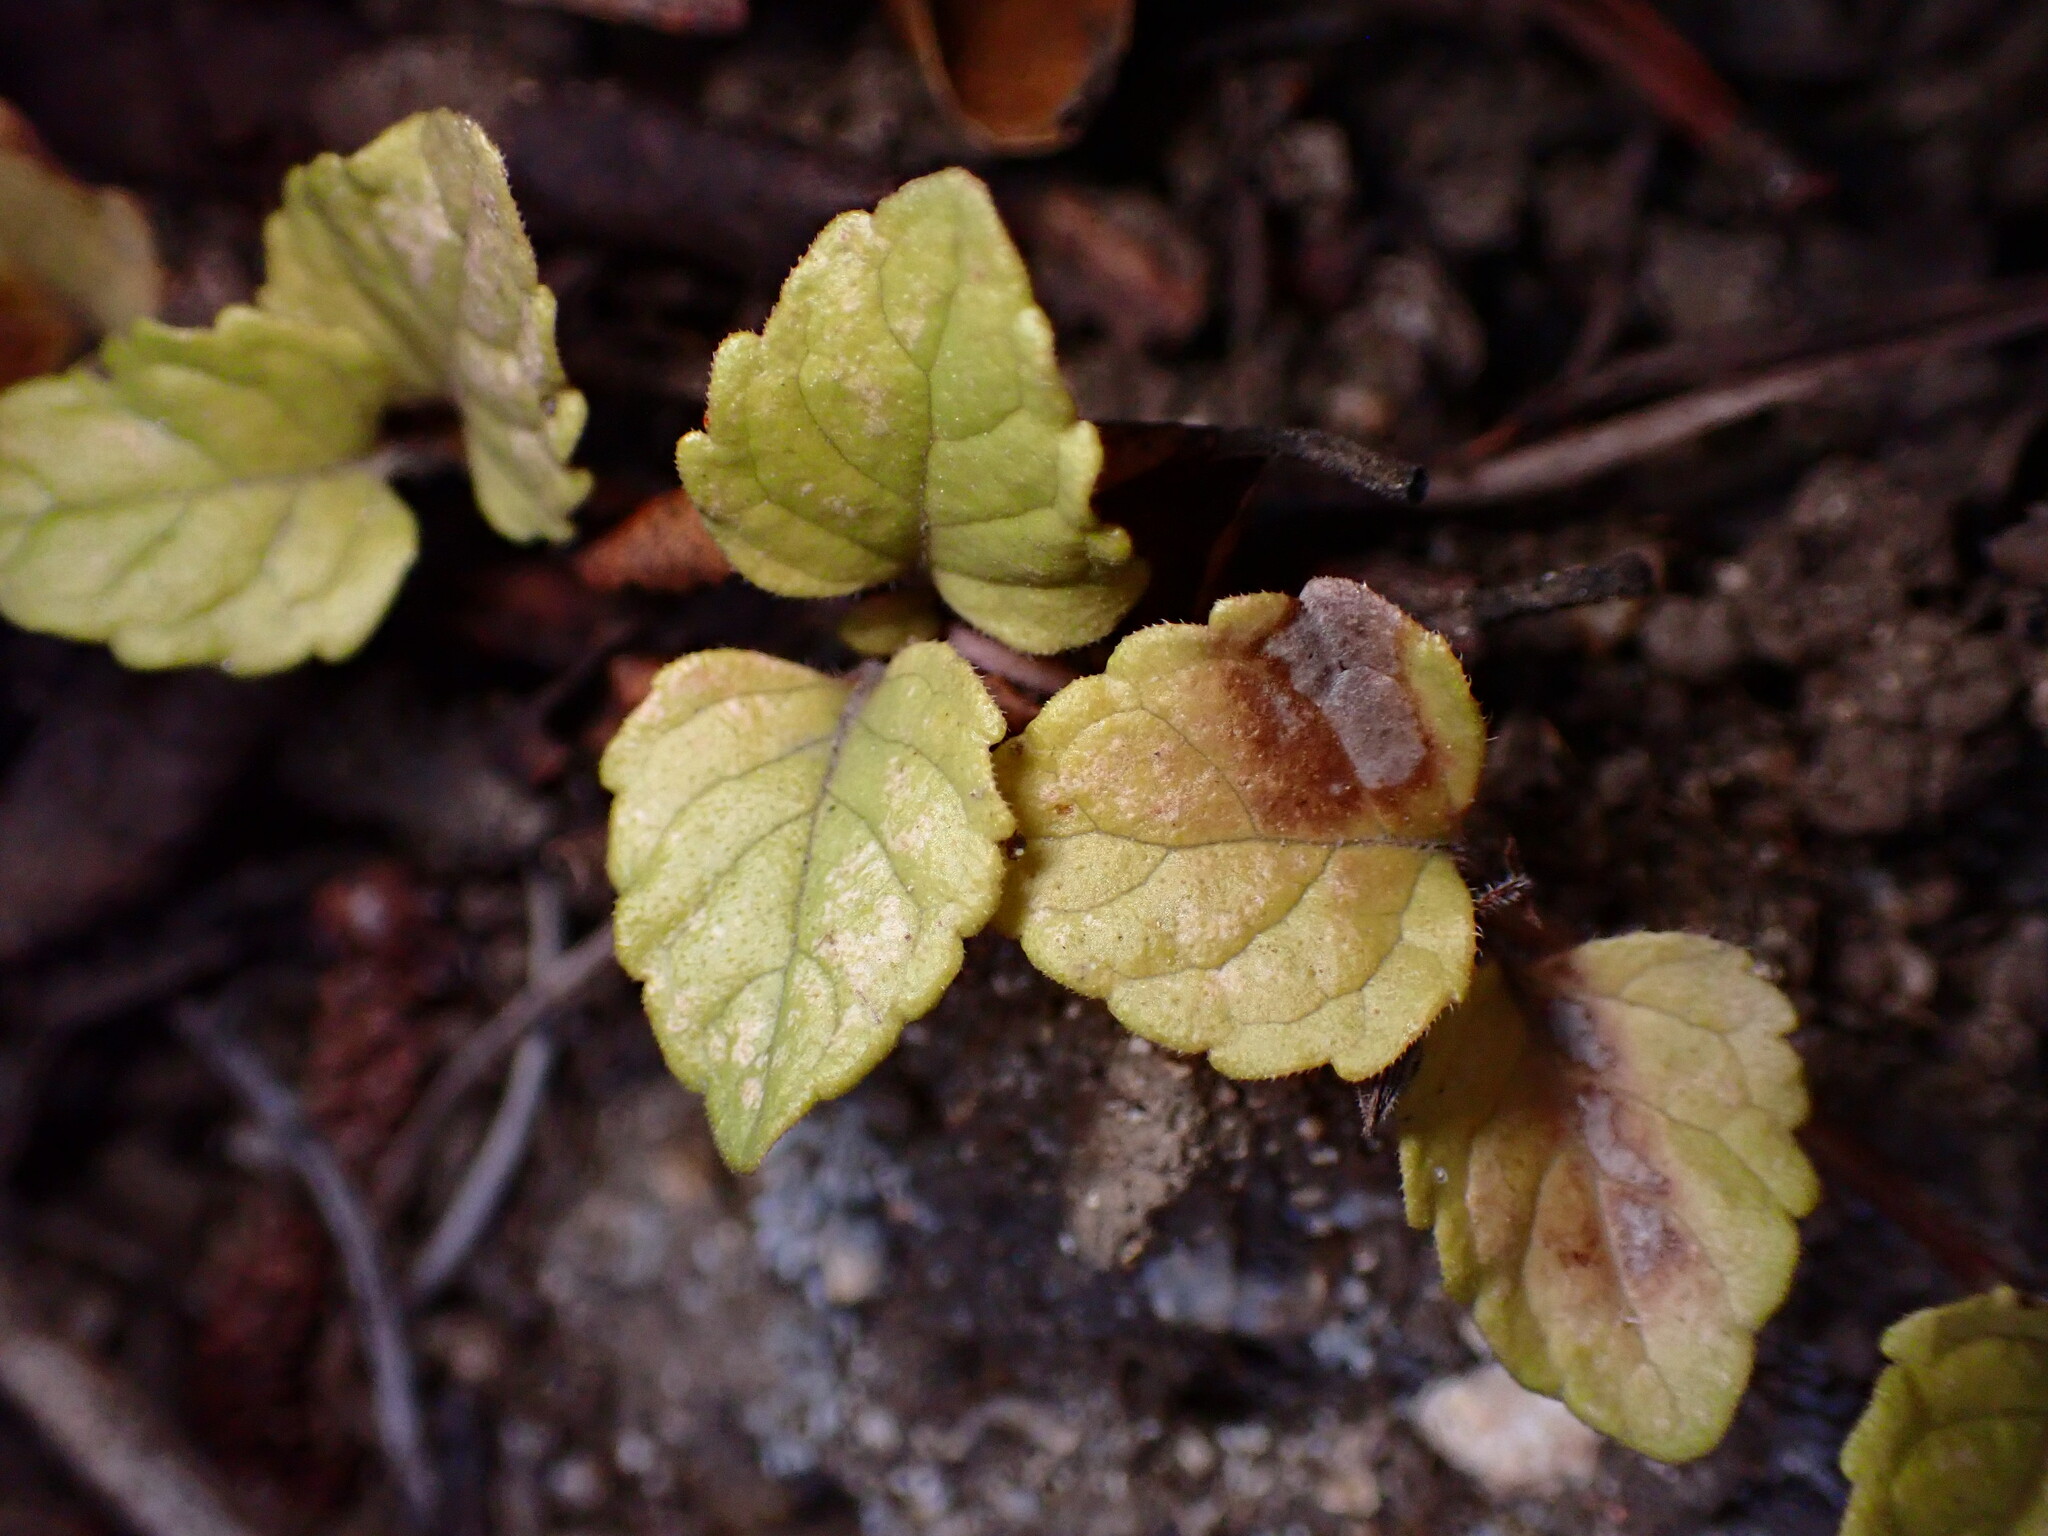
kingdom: Plantae
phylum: Tracheophyta
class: Magnoliopsida
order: Lamiales
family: Lamiaceae
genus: Micromeria
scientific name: Micromeria douglasii
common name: Yerba buena
